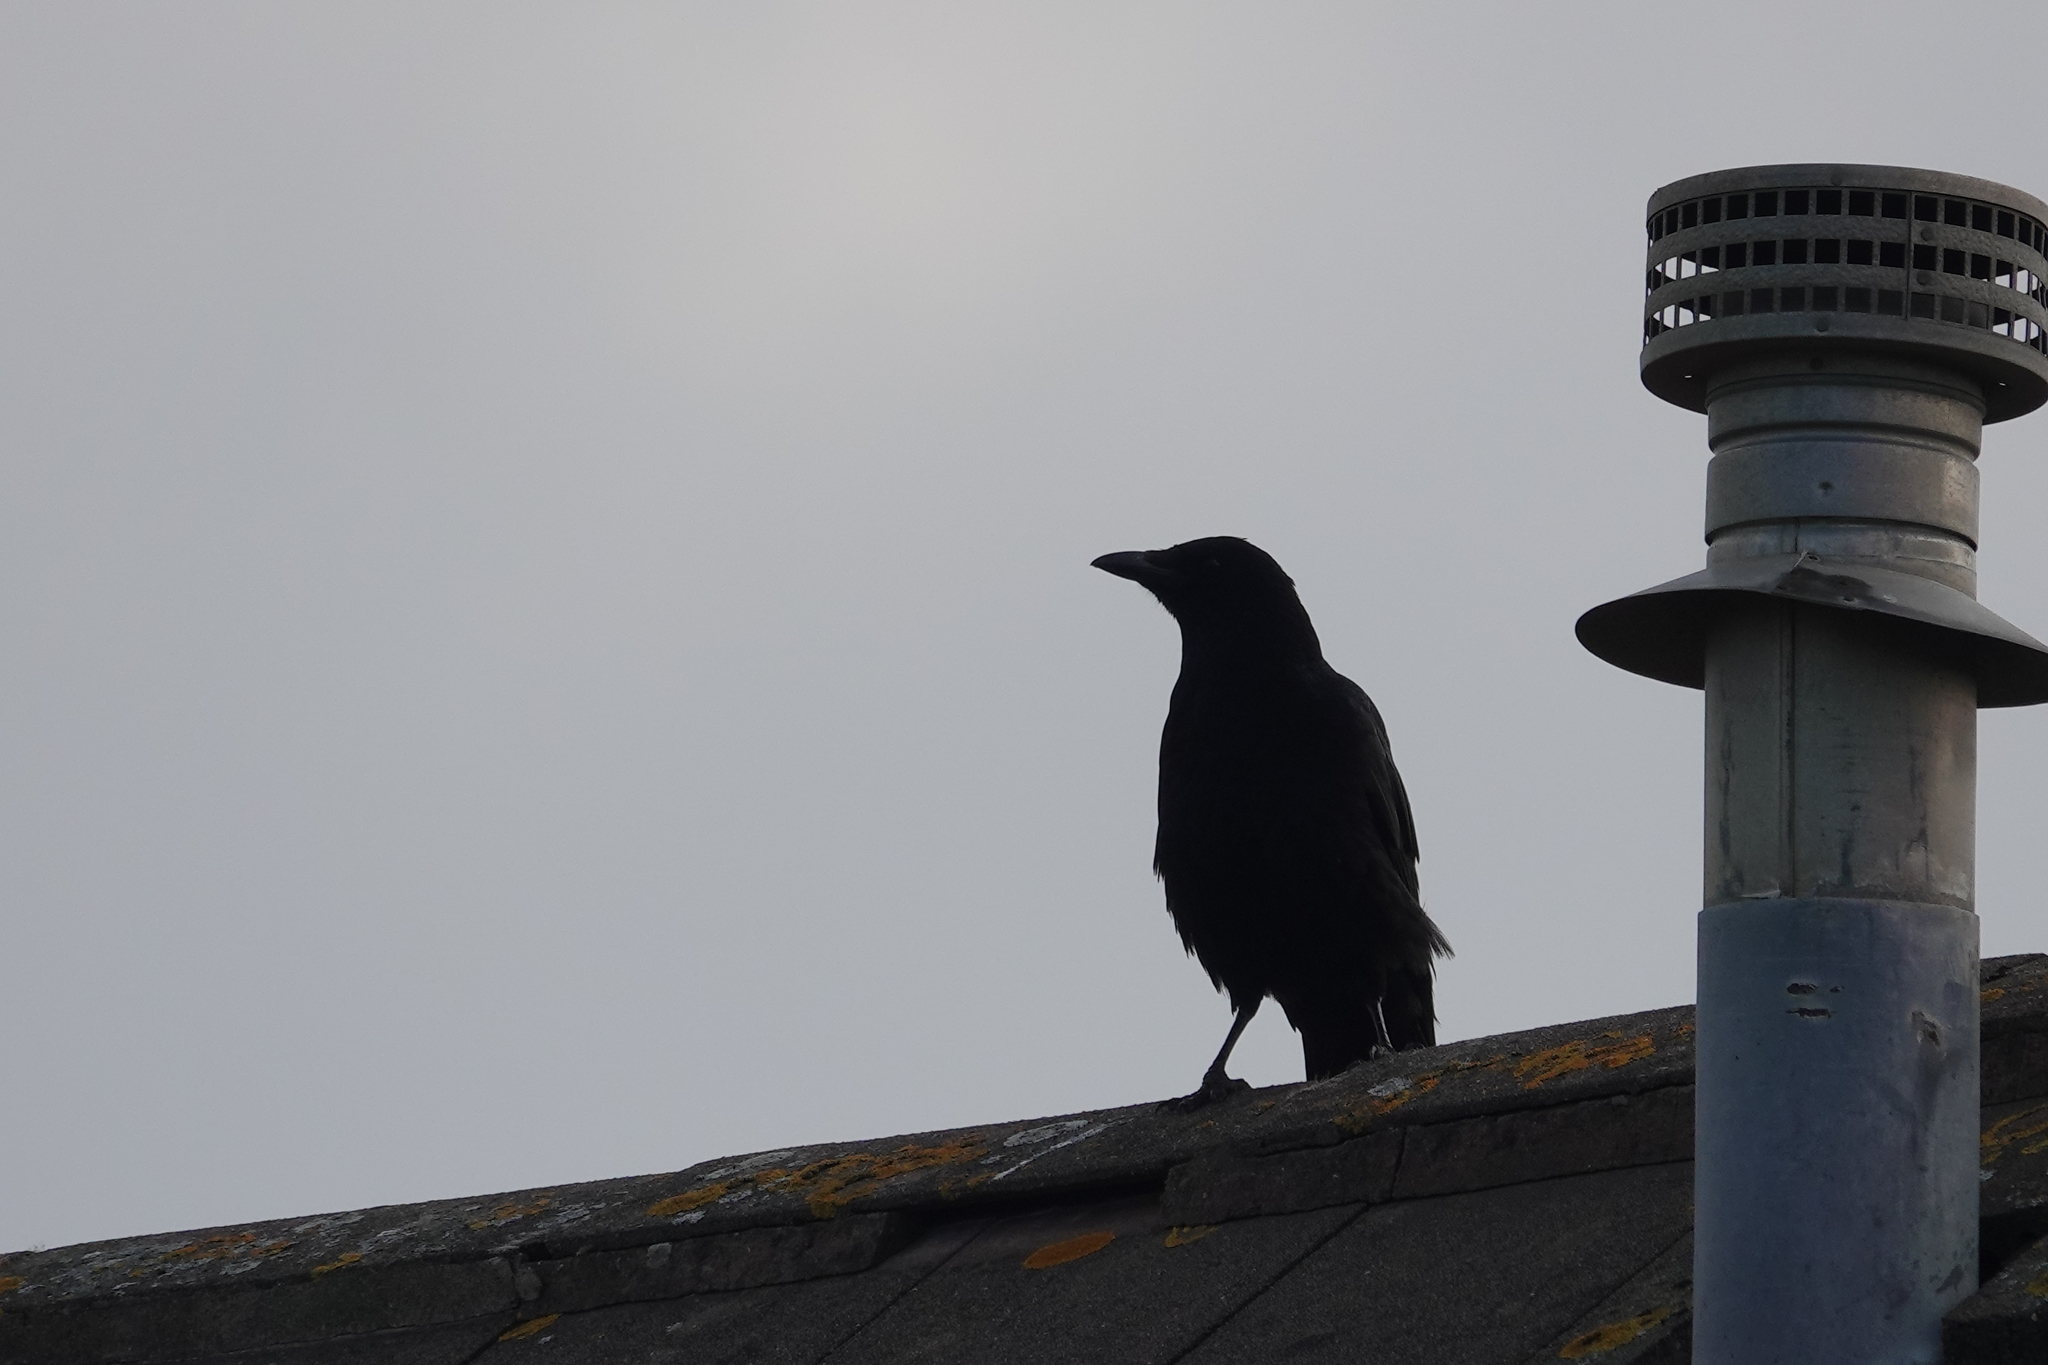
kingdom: Animalia
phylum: Chordata
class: Aves
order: Passeriformes
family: Corvidae
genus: Corvus
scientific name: Corvus corone
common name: Carrion crow
